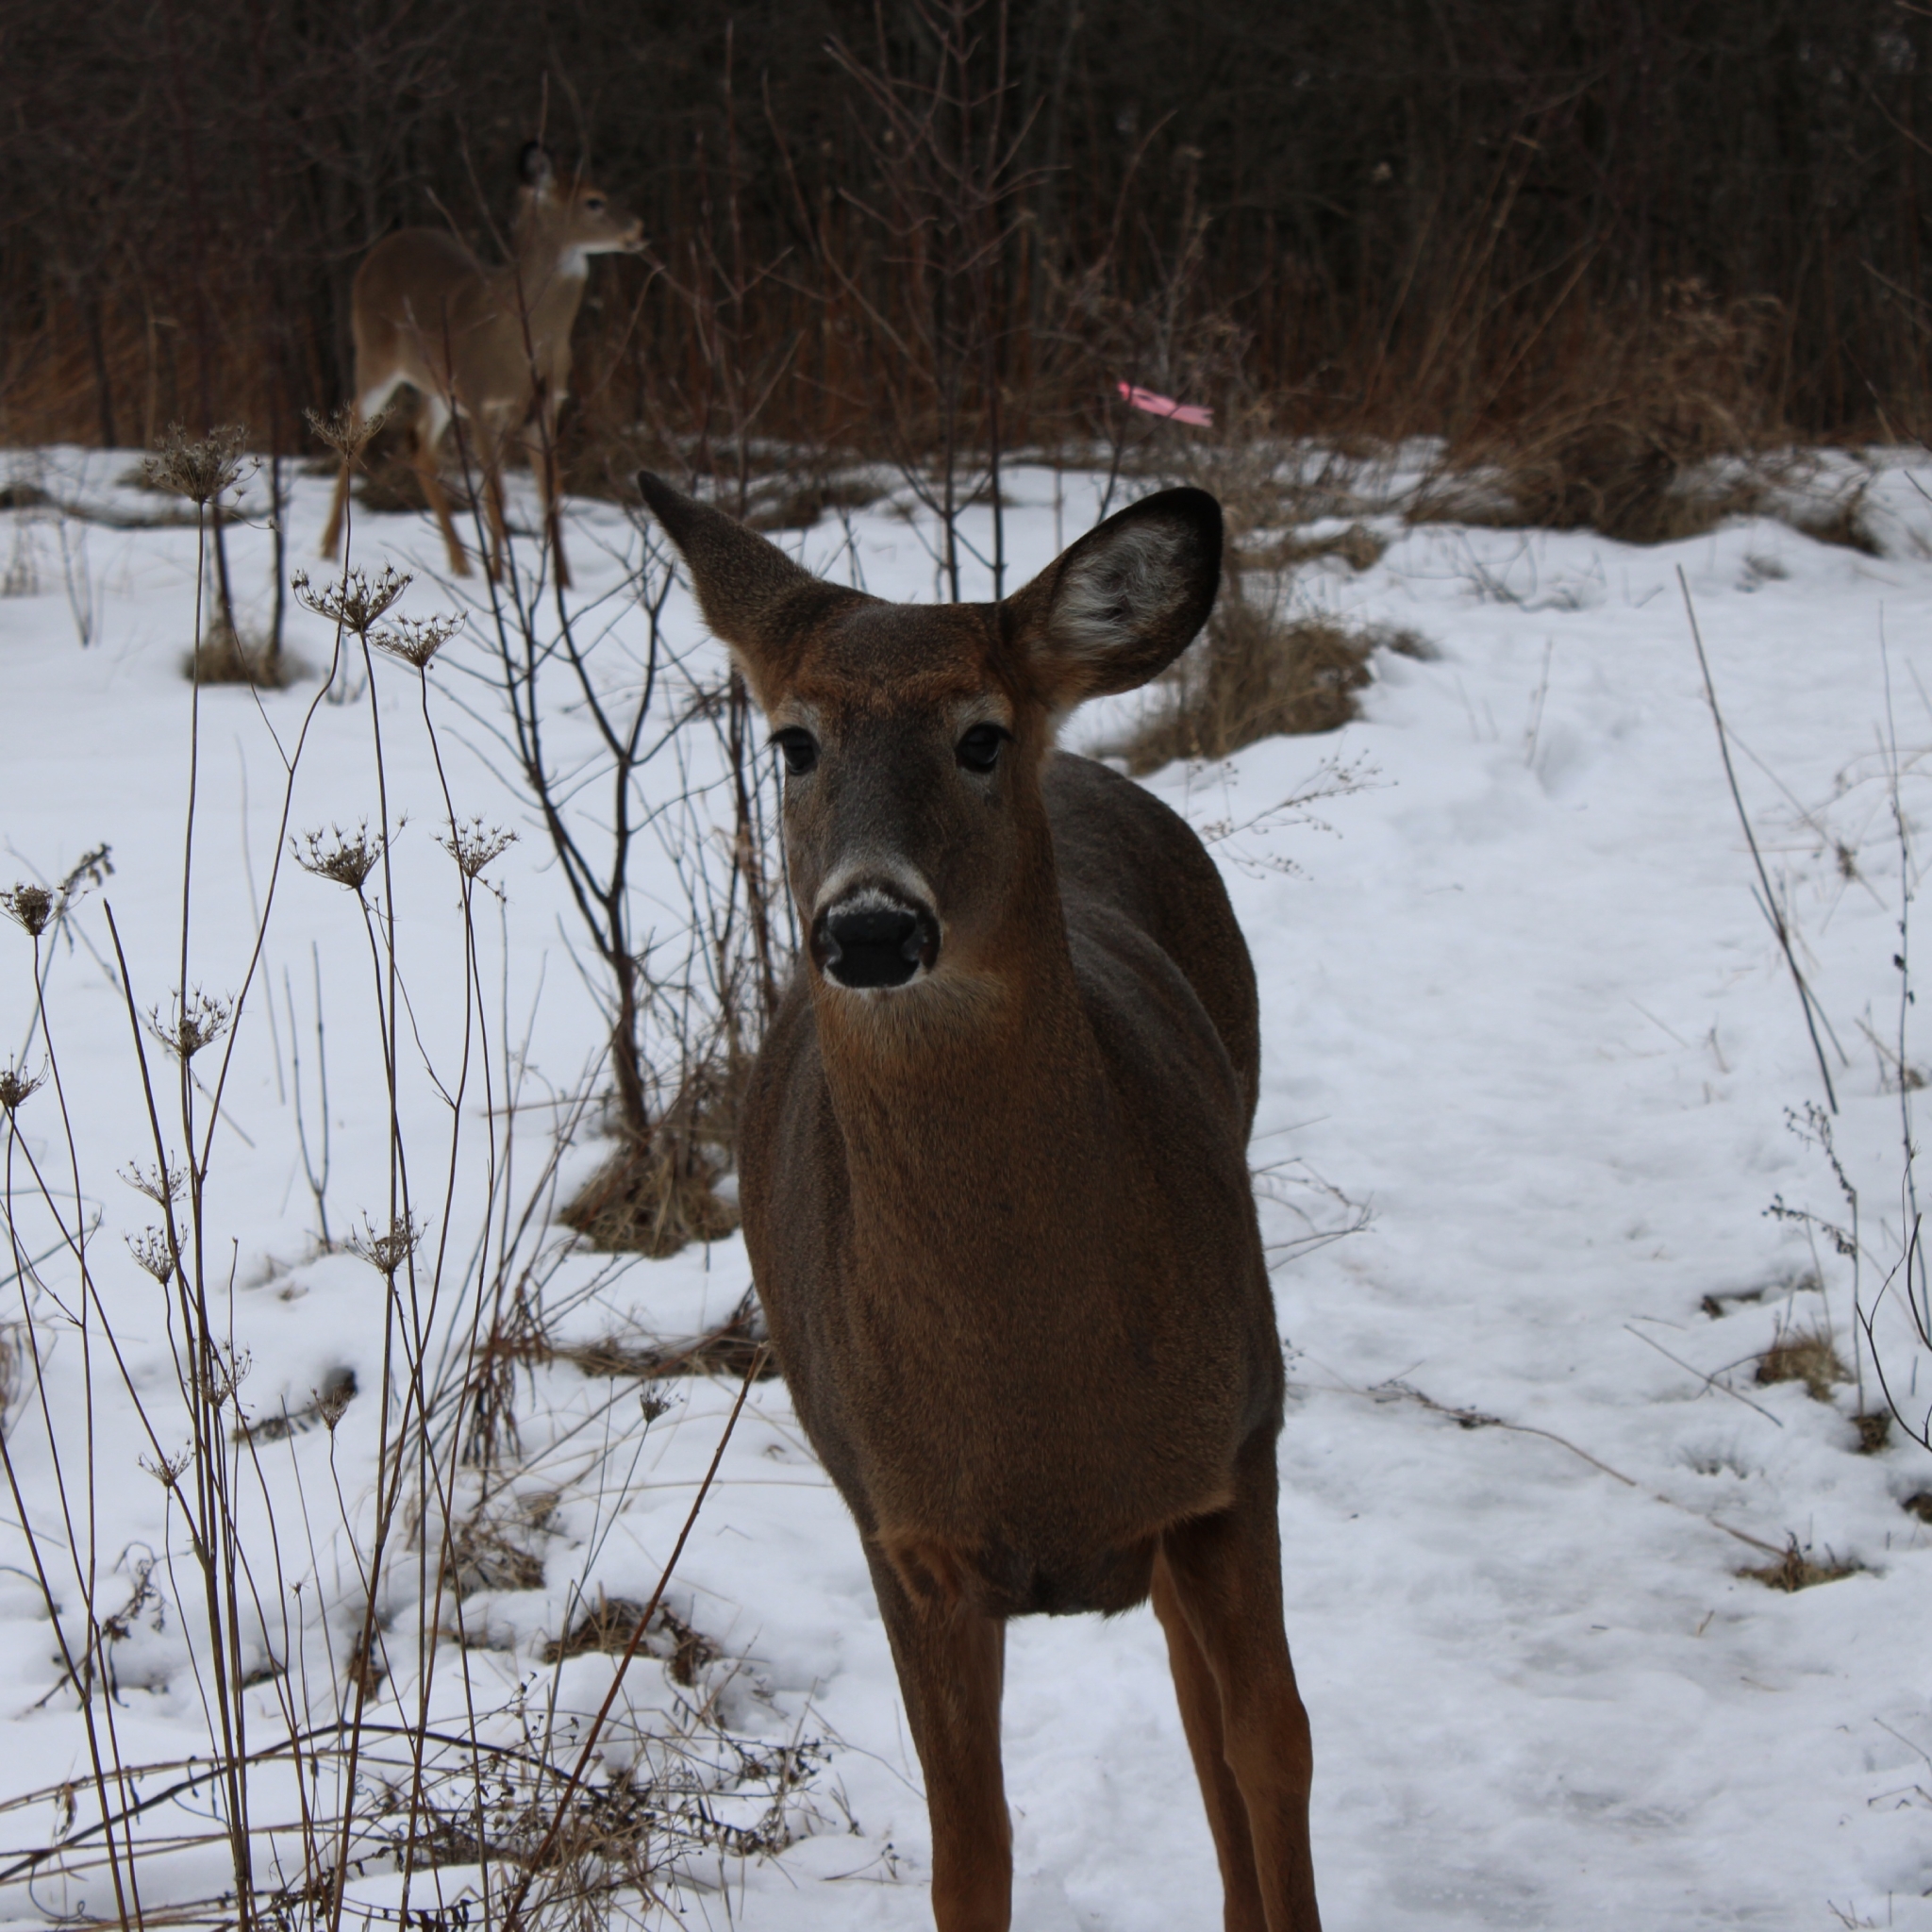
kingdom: Animalia
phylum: Chordata
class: Mammalia
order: Artiodactyla
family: Cervidae
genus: Odocoileus
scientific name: Odocoileus virginianus
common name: White-tailed deer
